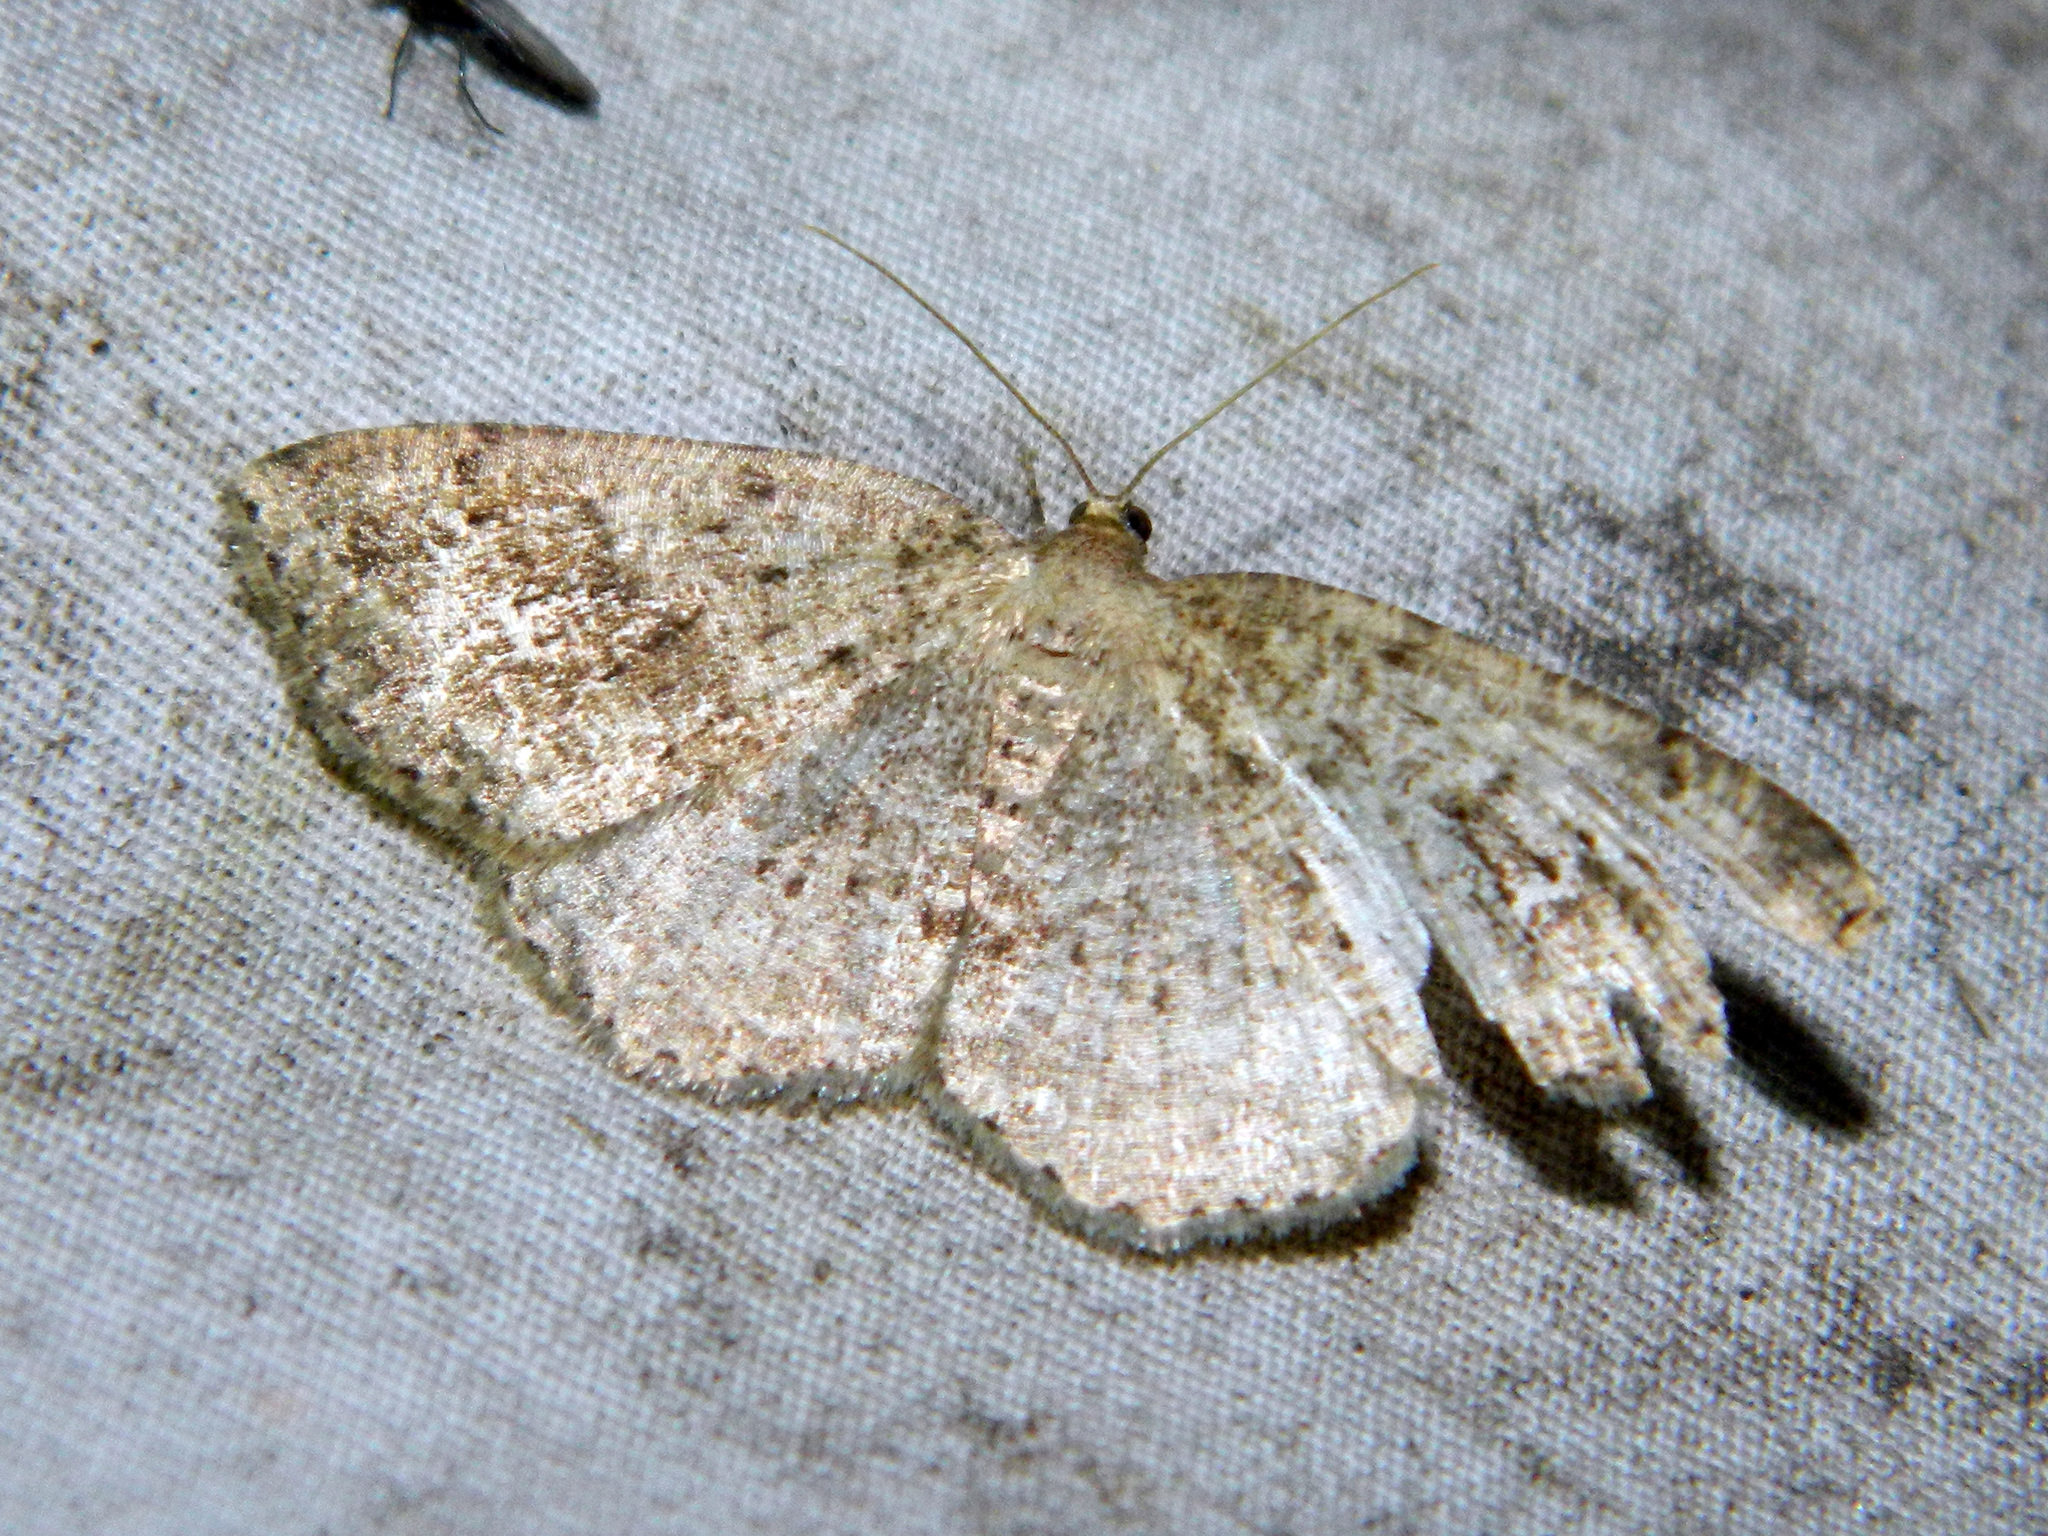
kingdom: Animalia
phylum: Arthropoda
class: Insecta
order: Lepidoptera
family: Geometridae
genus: Homochlodes
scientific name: Homochlodes fritillaria
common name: Pale homochlodes
